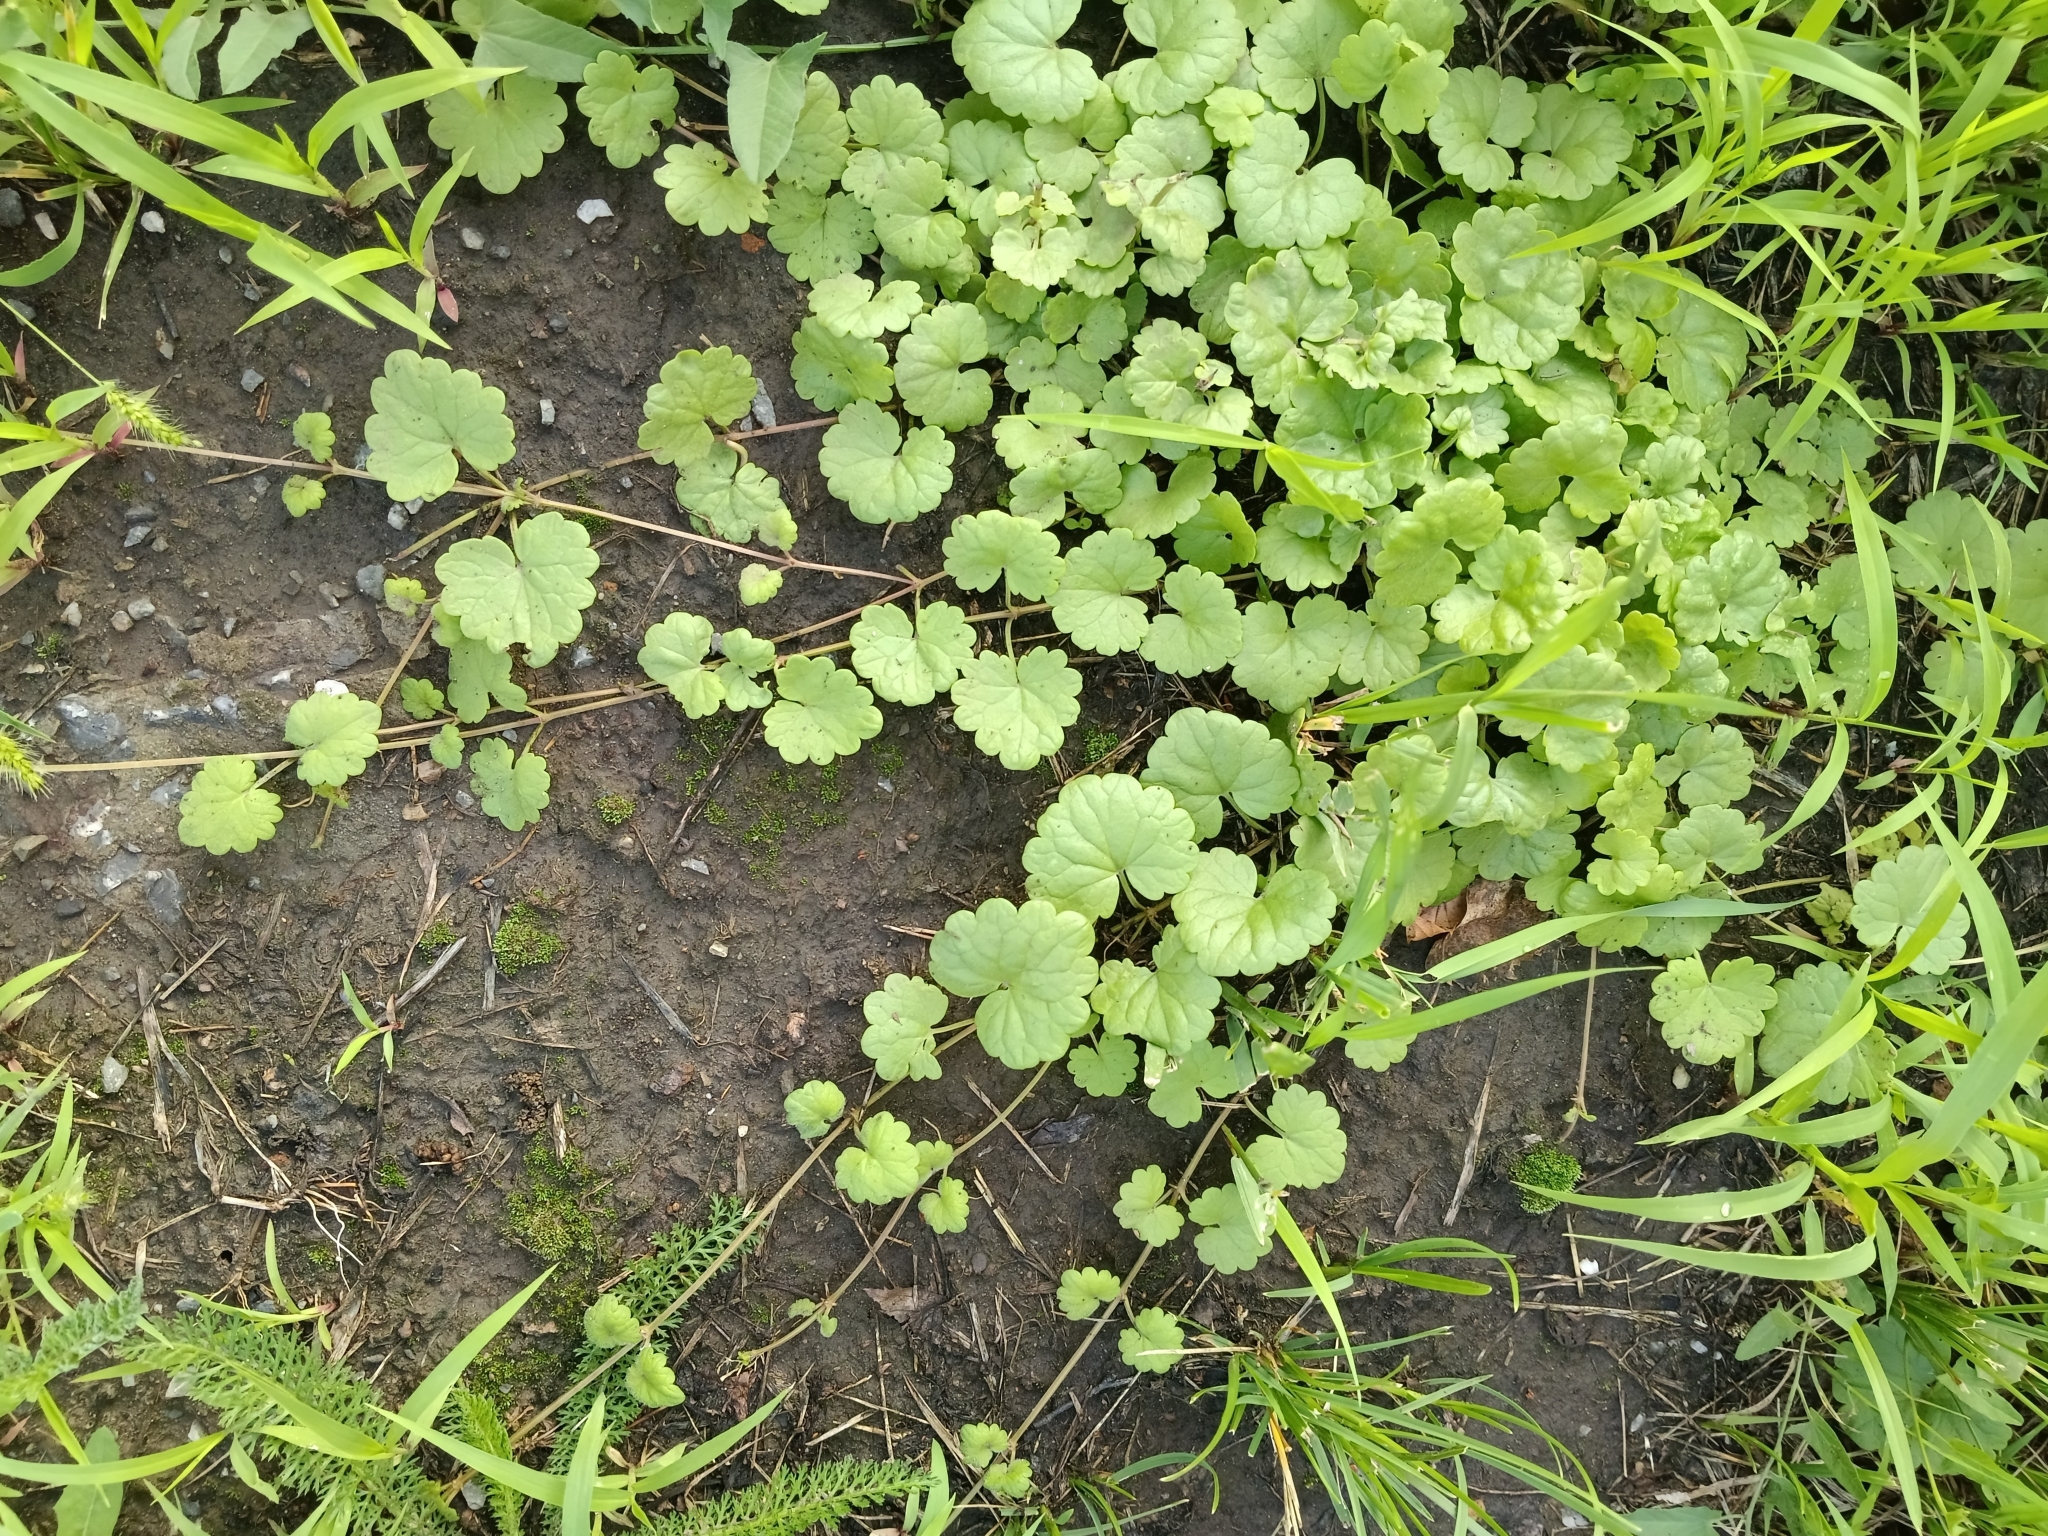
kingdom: Plantae
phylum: Tracheophyta
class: Magnoliopsida
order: Lamiales
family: Lamiaceae
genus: Glechoma
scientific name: Glechoma hederacea
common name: Ground ivy
